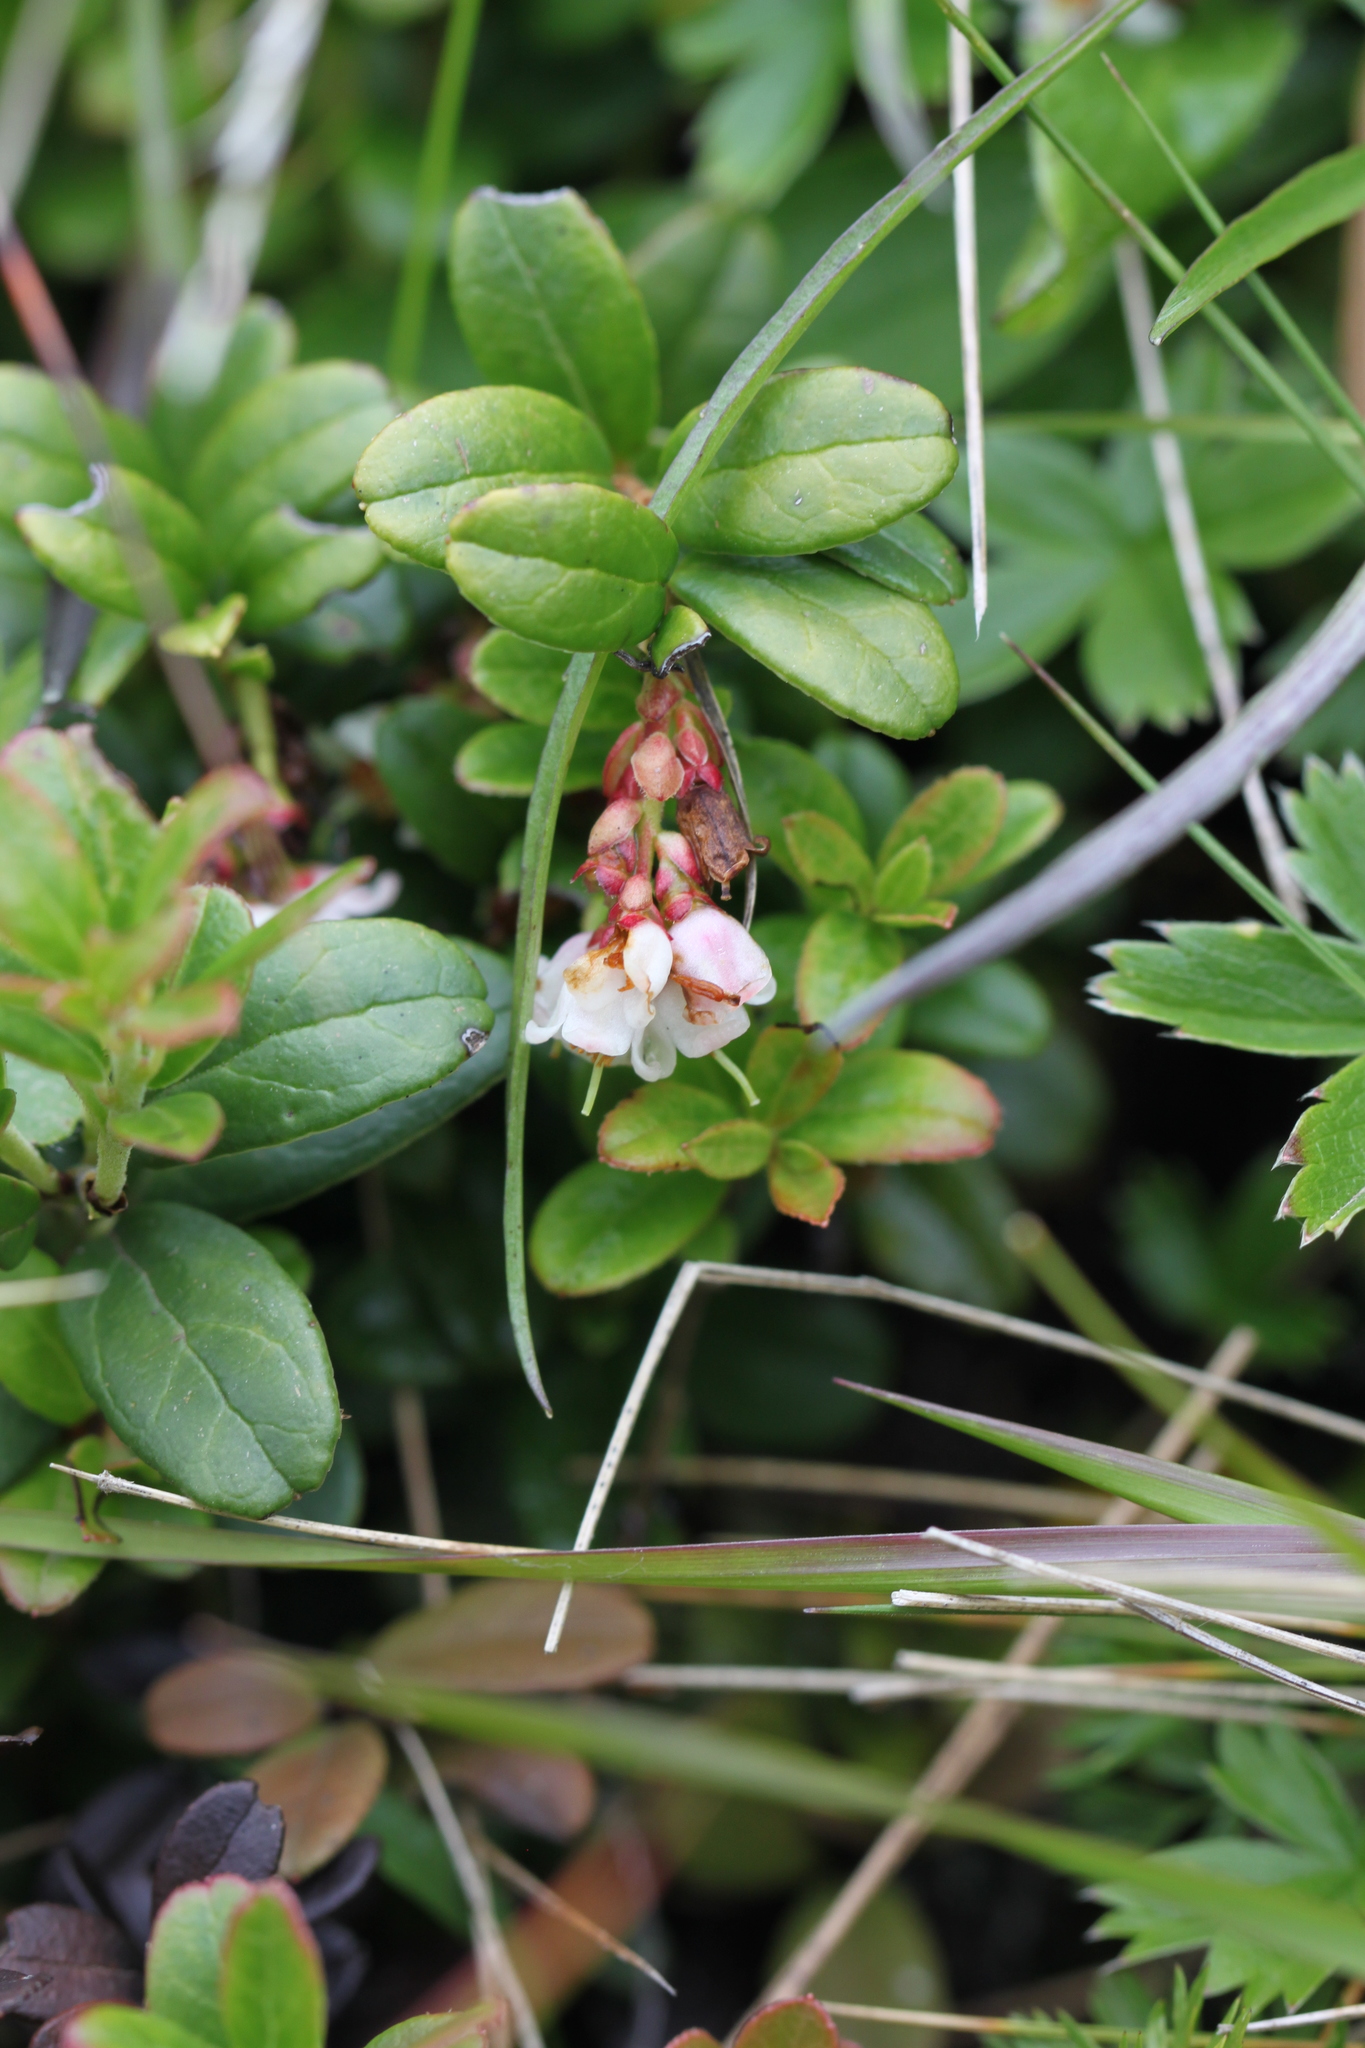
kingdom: Plantae
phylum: Tracheophyta
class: Magnoliopsida
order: Ericales
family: Ericaceae
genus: Vaccinium
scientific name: Vaccinium vitis-idaea
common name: Cowberry
